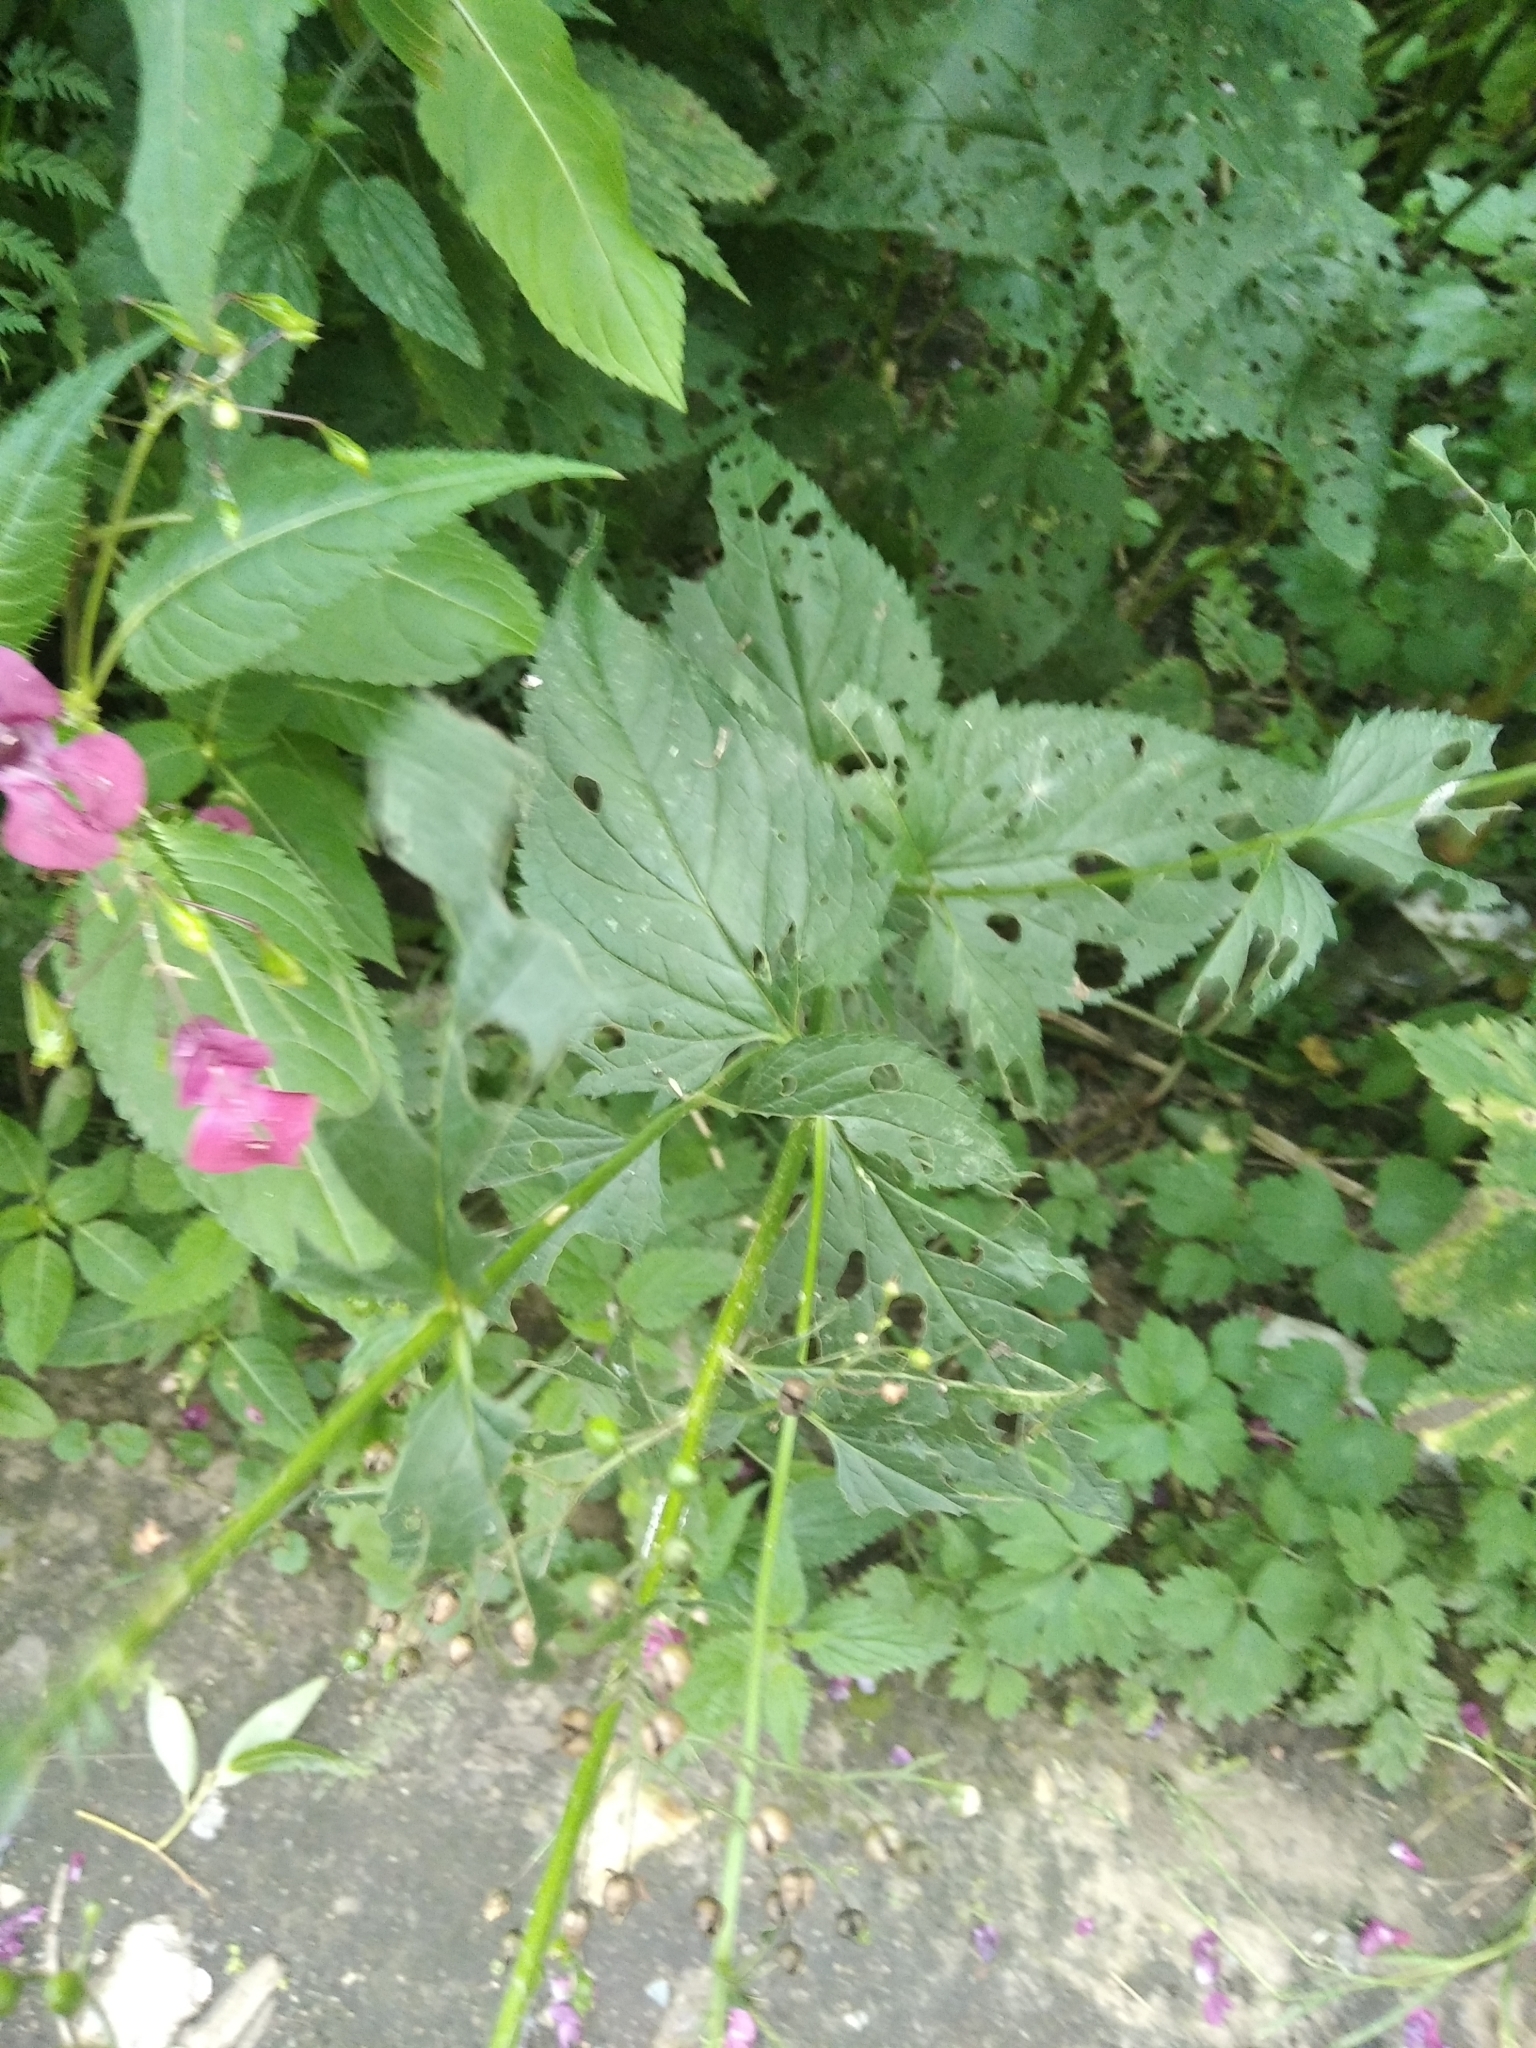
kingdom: Plantae
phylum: Tracheophyta
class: Magnoliopsida
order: Lamiales
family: Scrophulariaceae
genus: Scrophularia
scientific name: Scrophularia nodosa
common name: Common figwort
